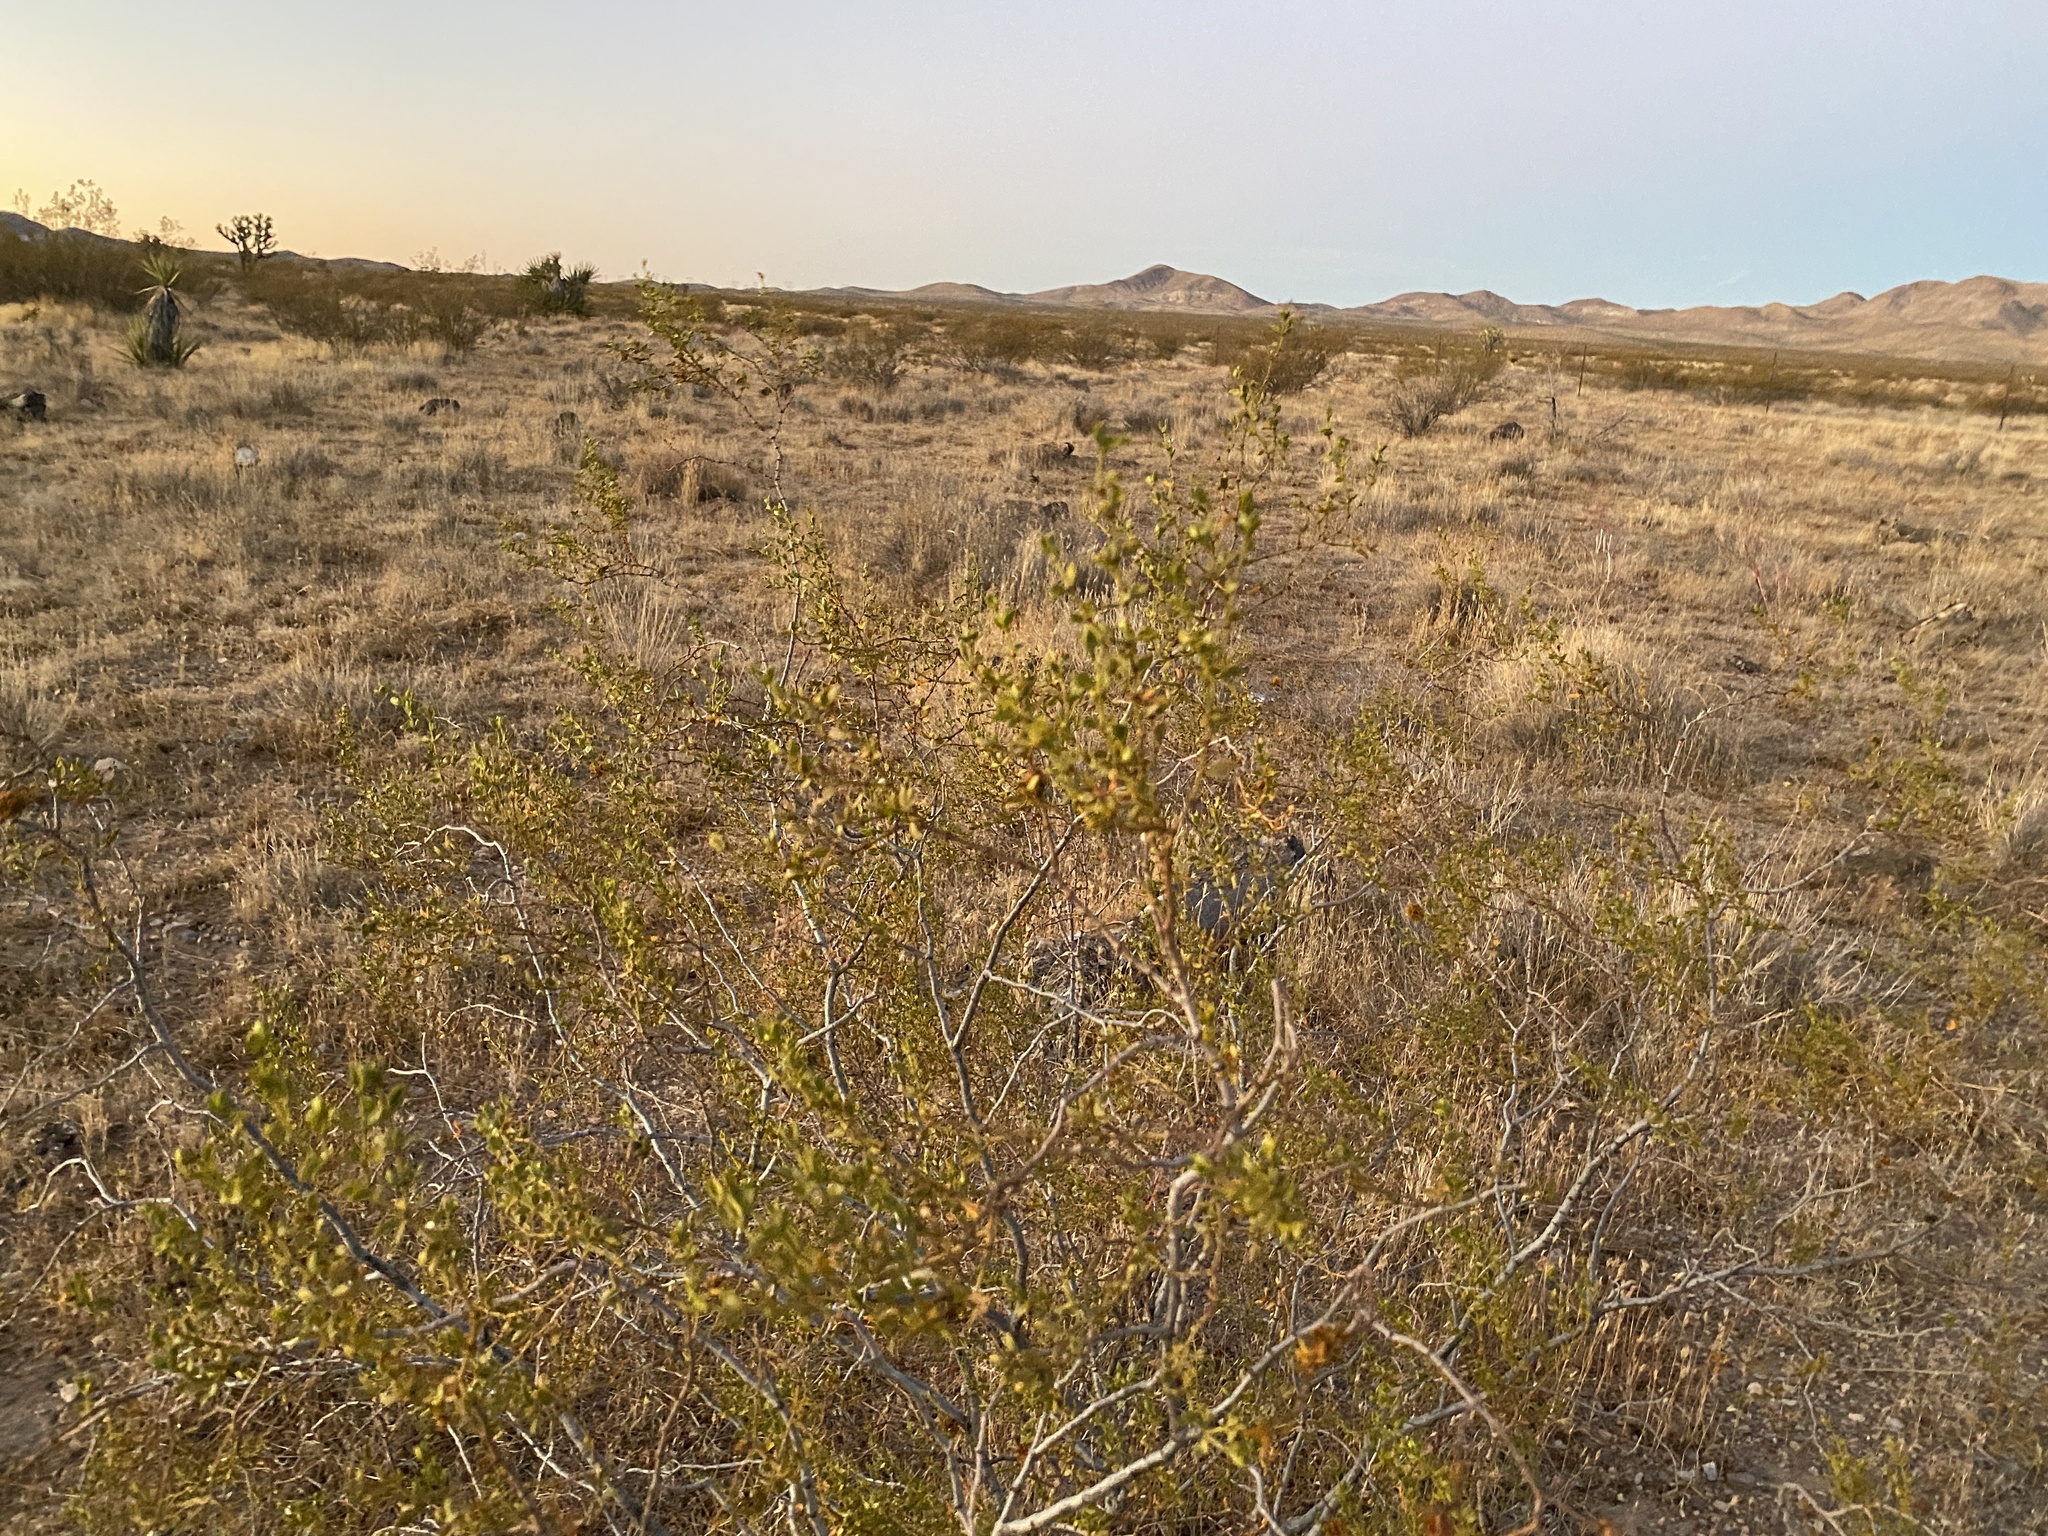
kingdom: Plantae
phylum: Tracheophyta
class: Magnoliopsida
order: Zygophyllales
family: Zygophyllaceae
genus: Larrea
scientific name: Larrea tridentata
